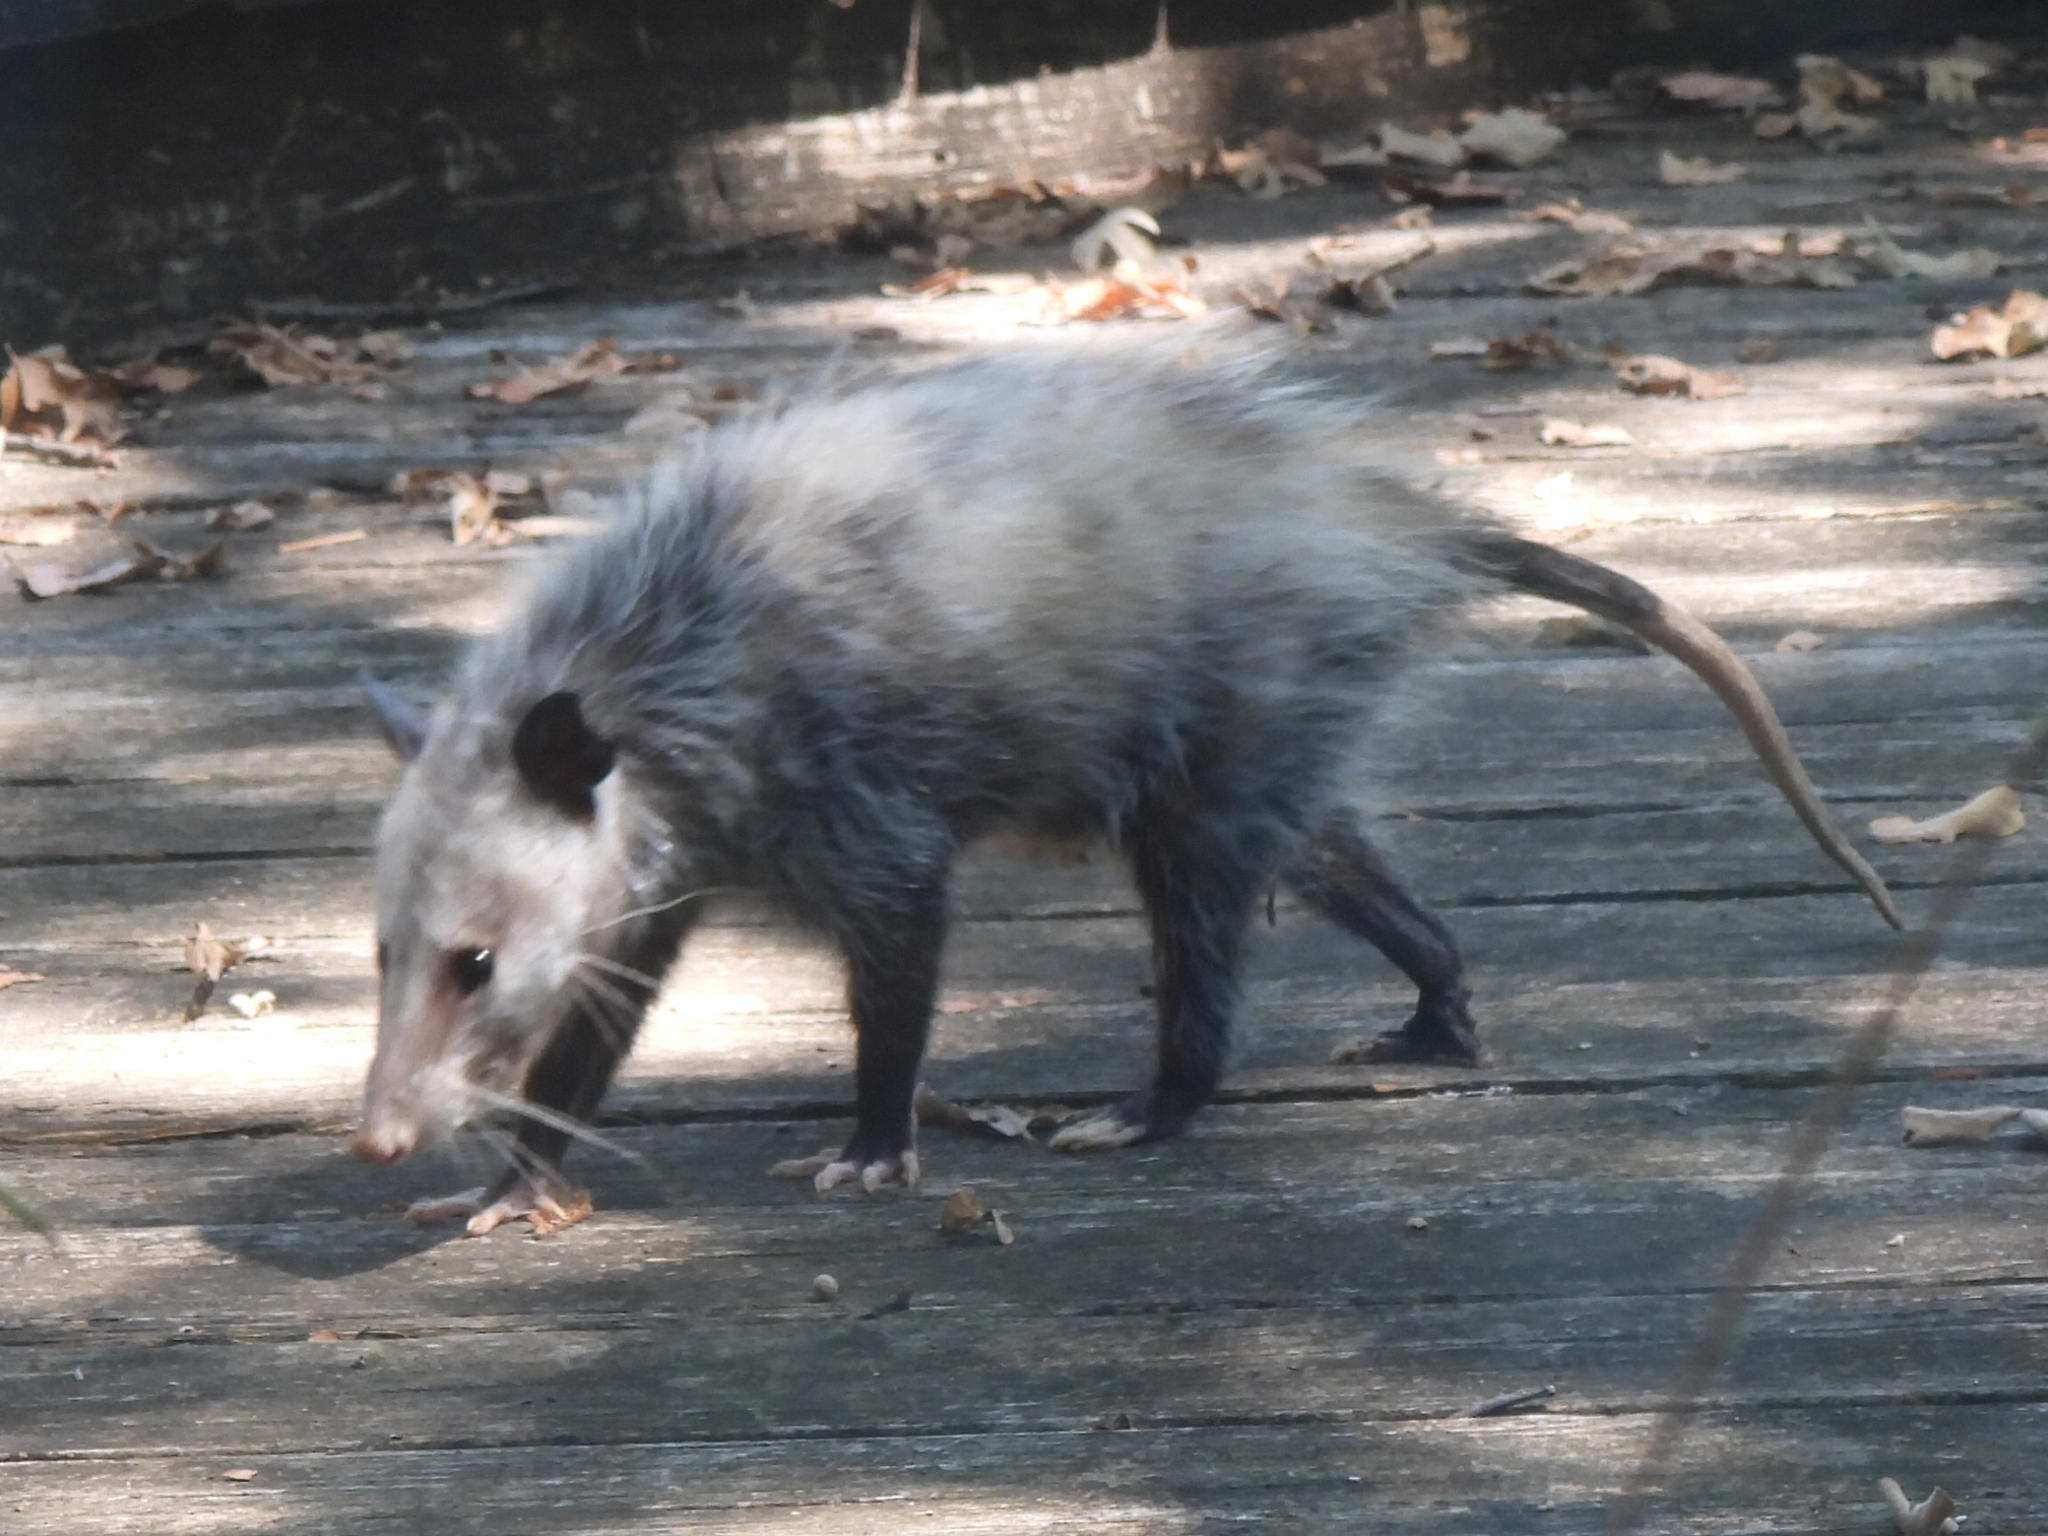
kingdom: Animalia
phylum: Chordata
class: Mammalia
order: Didelphimorphia
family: Didelphidae
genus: Didelphis
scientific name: Didelphis virginiana
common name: Virginia opossum
